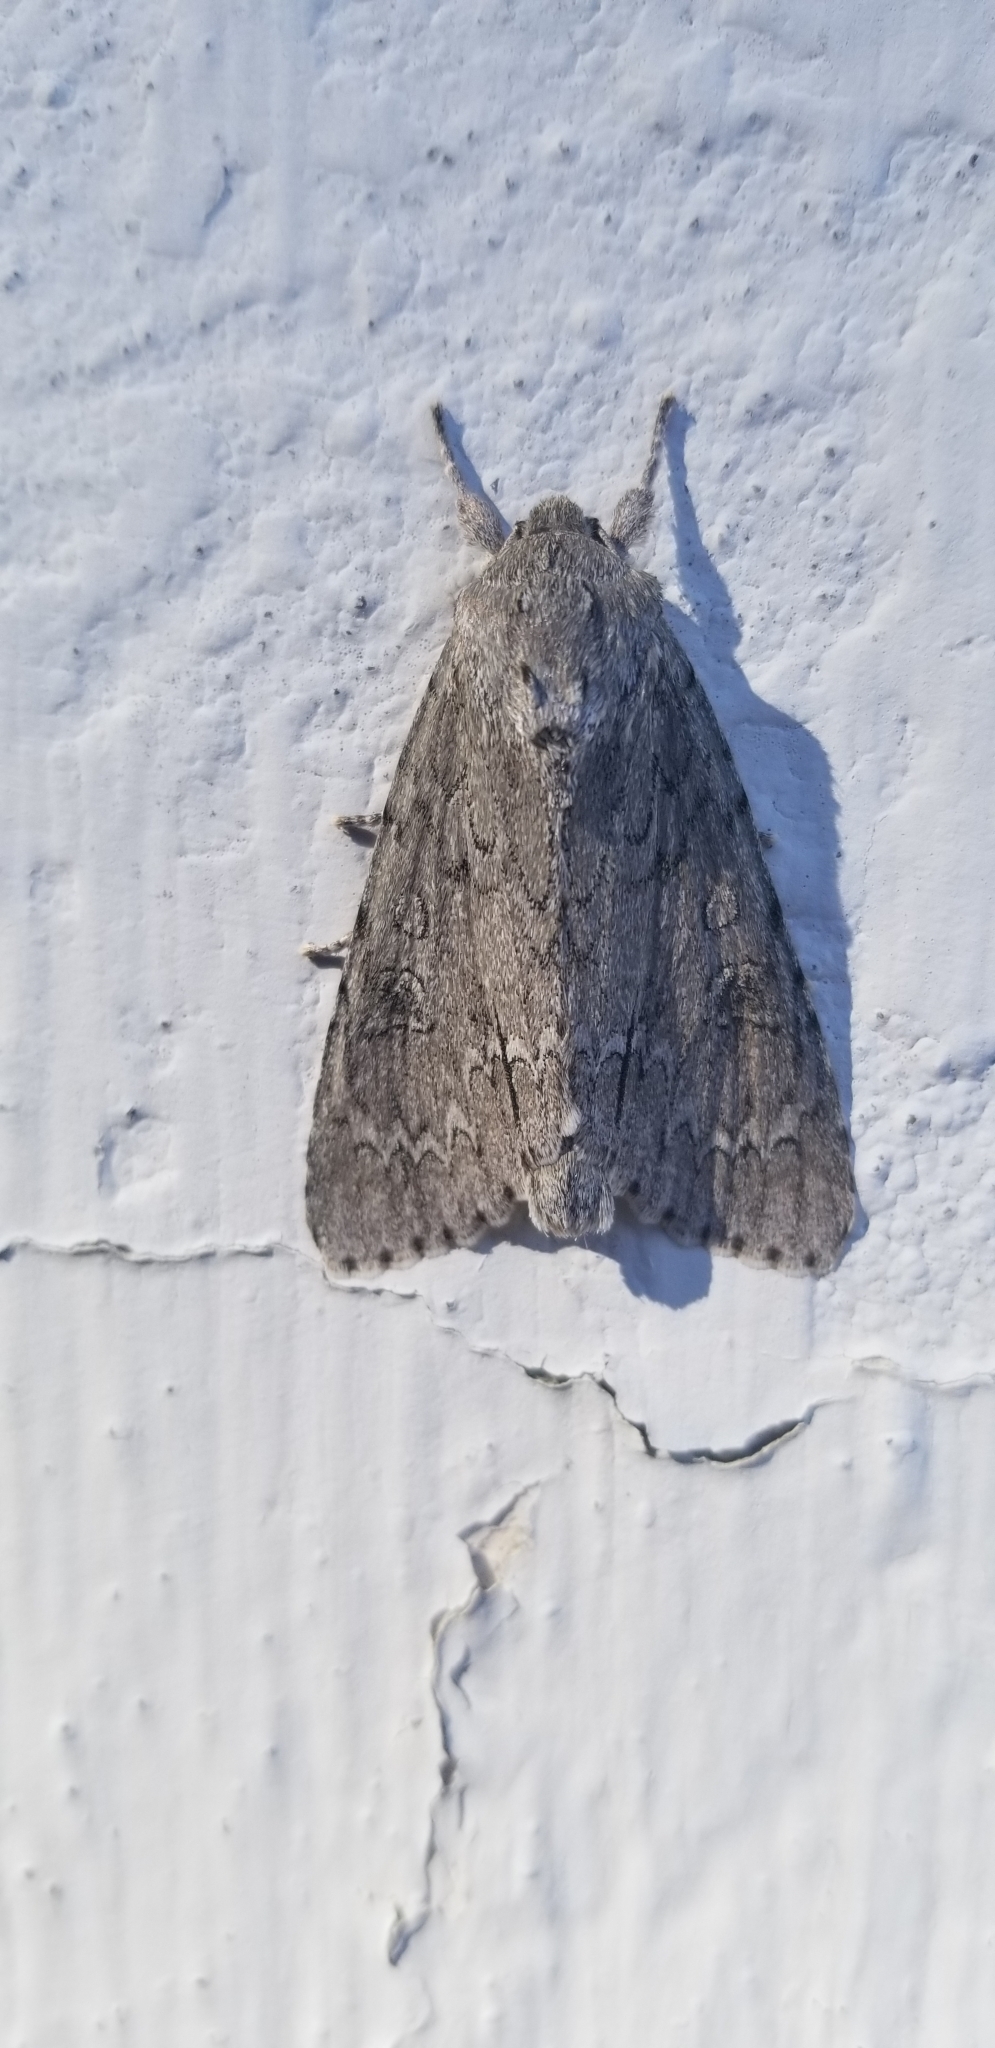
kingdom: Animalia
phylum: Arthropoda
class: Insecta
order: Lepidoptera
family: Noctuidae
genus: Acronicta
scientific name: Acronicta americana
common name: American dagger
